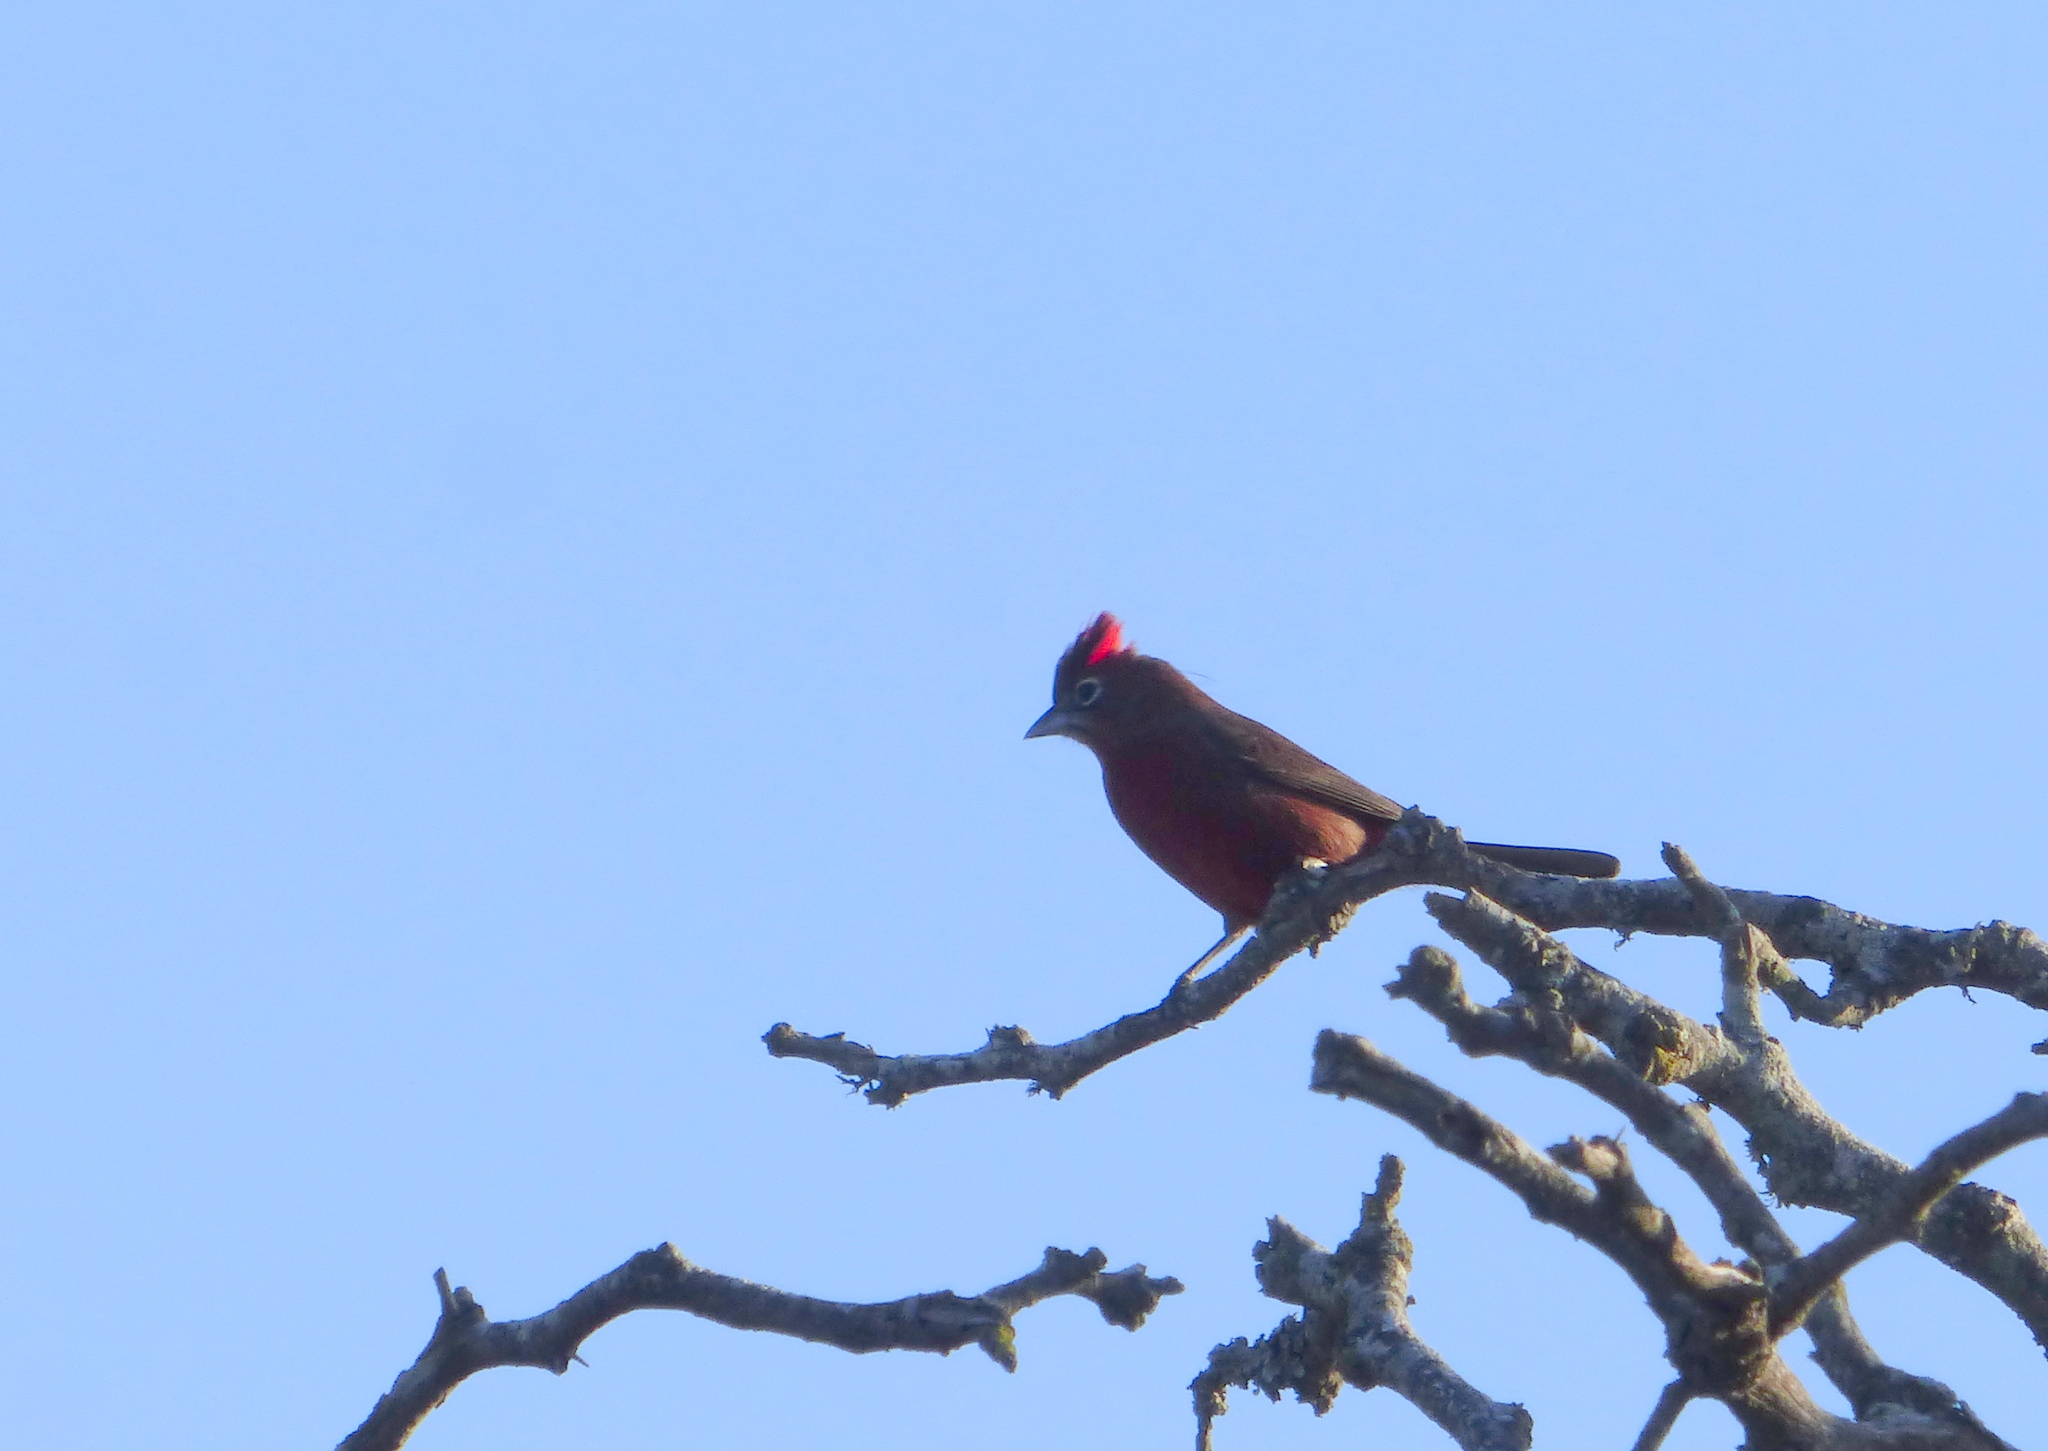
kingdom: Animalia
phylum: Chordata
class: Aves
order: Passeriformes
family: Thraupidae
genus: Coryphospingus
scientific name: Coryphospingus cucullatus
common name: Red pileated finch
